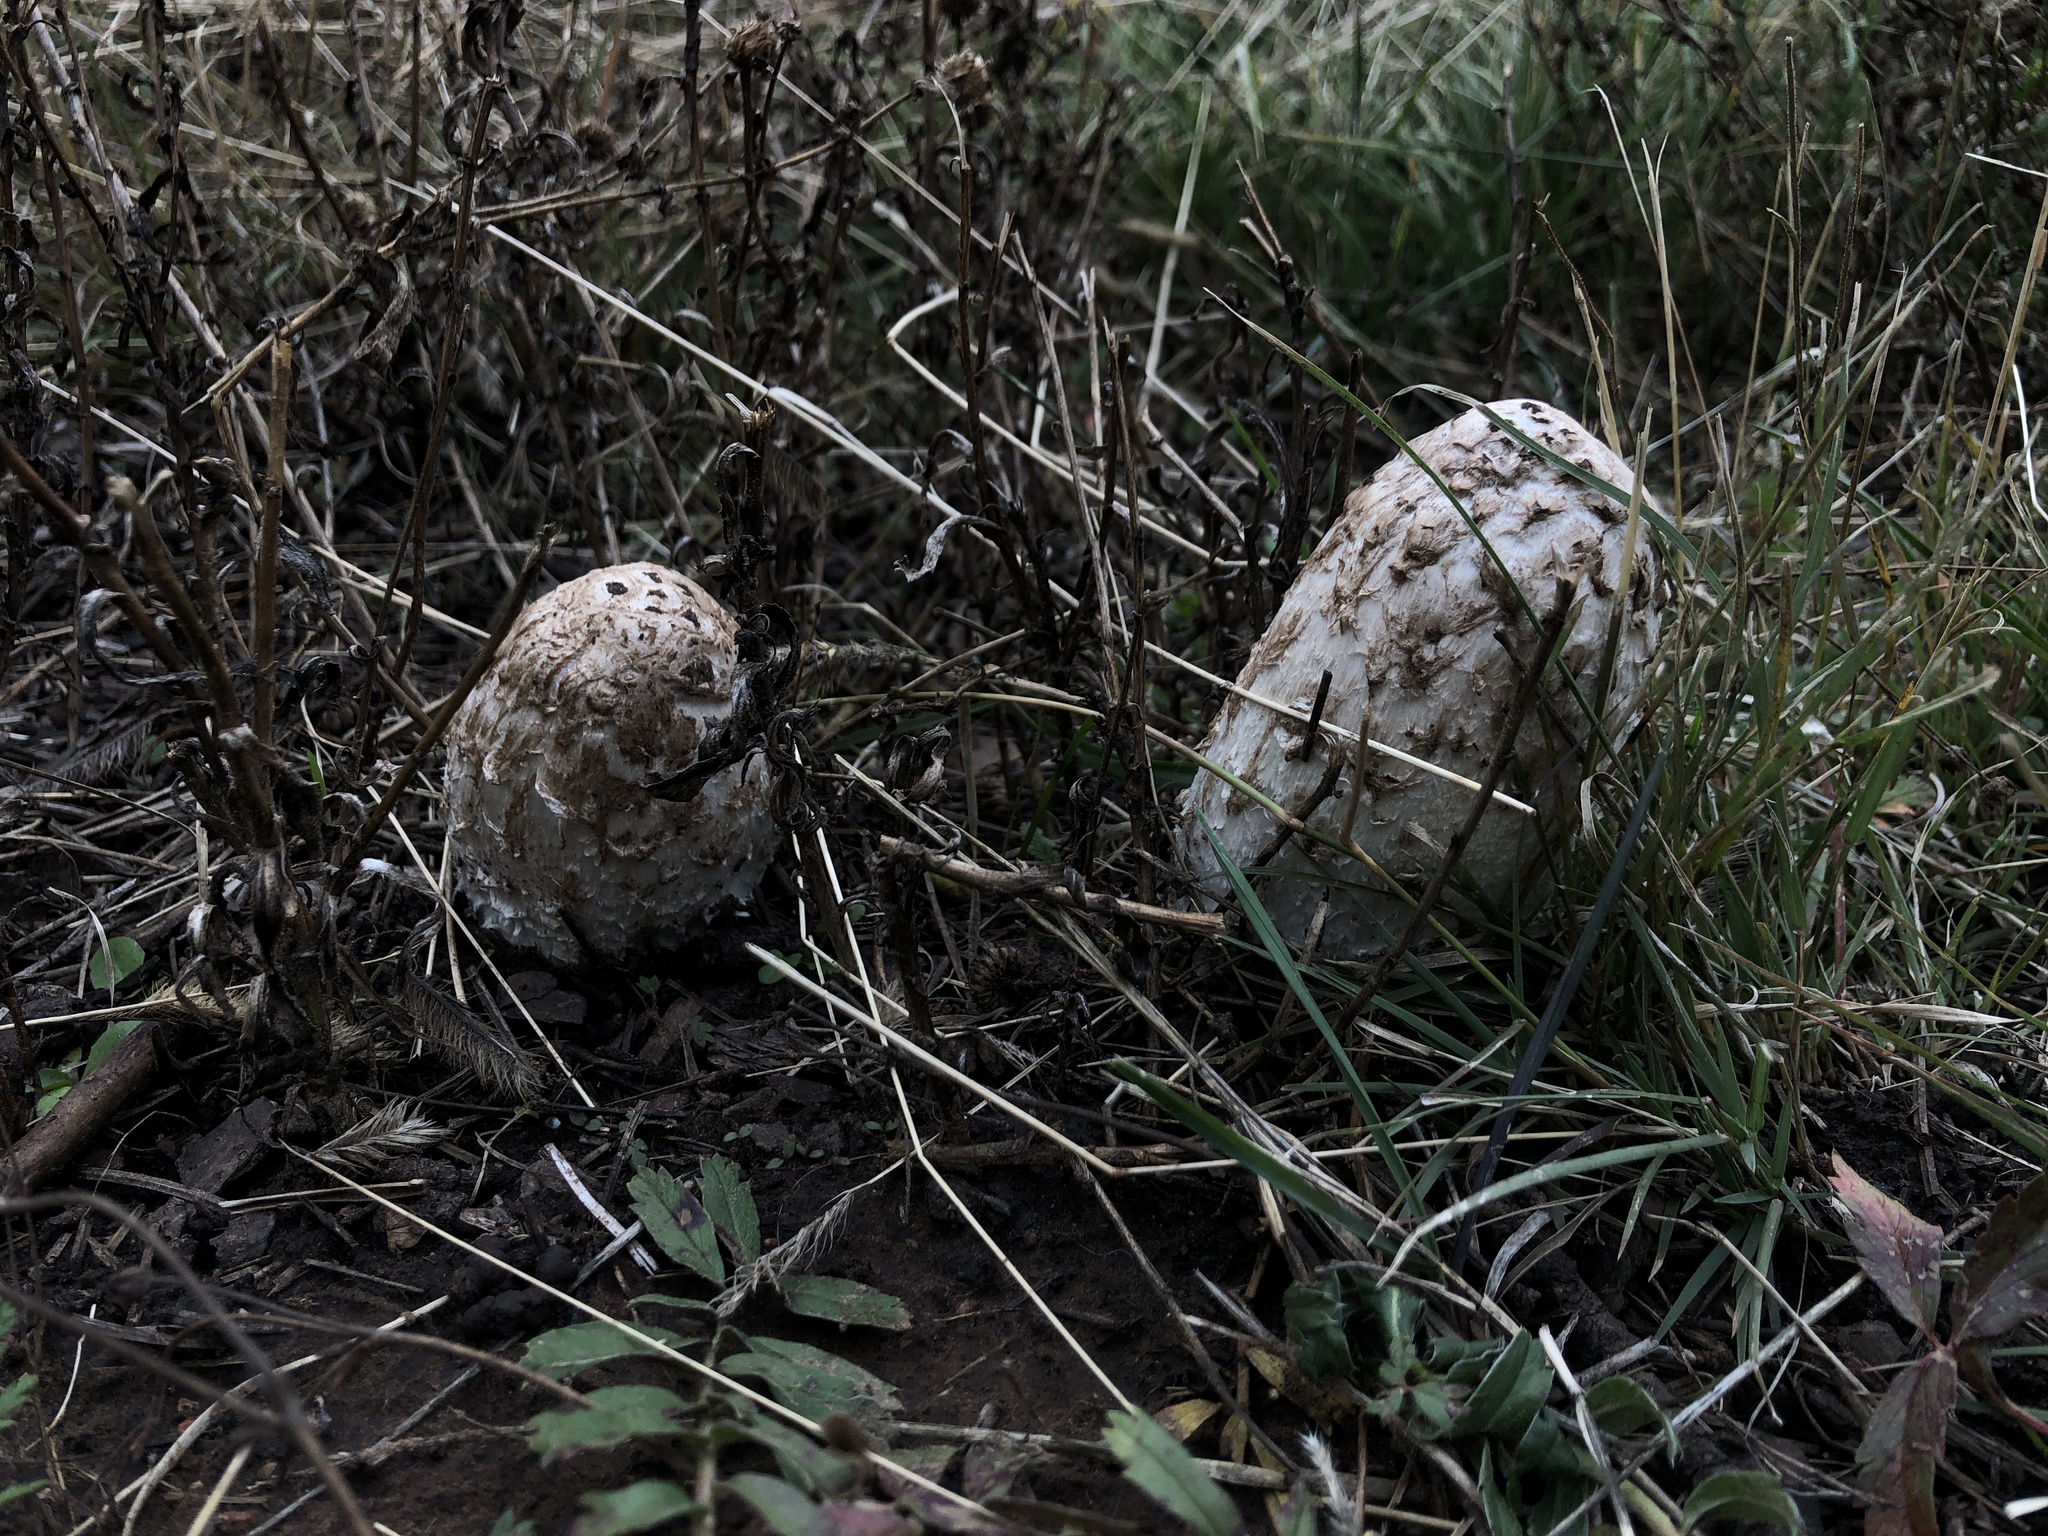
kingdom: Fungi
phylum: Basidiomycota
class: Agaricomycetes
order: Agaricales
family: Agaricaceae
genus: Coprinus
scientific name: Coprinus comatus
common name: Lawyer's wig
